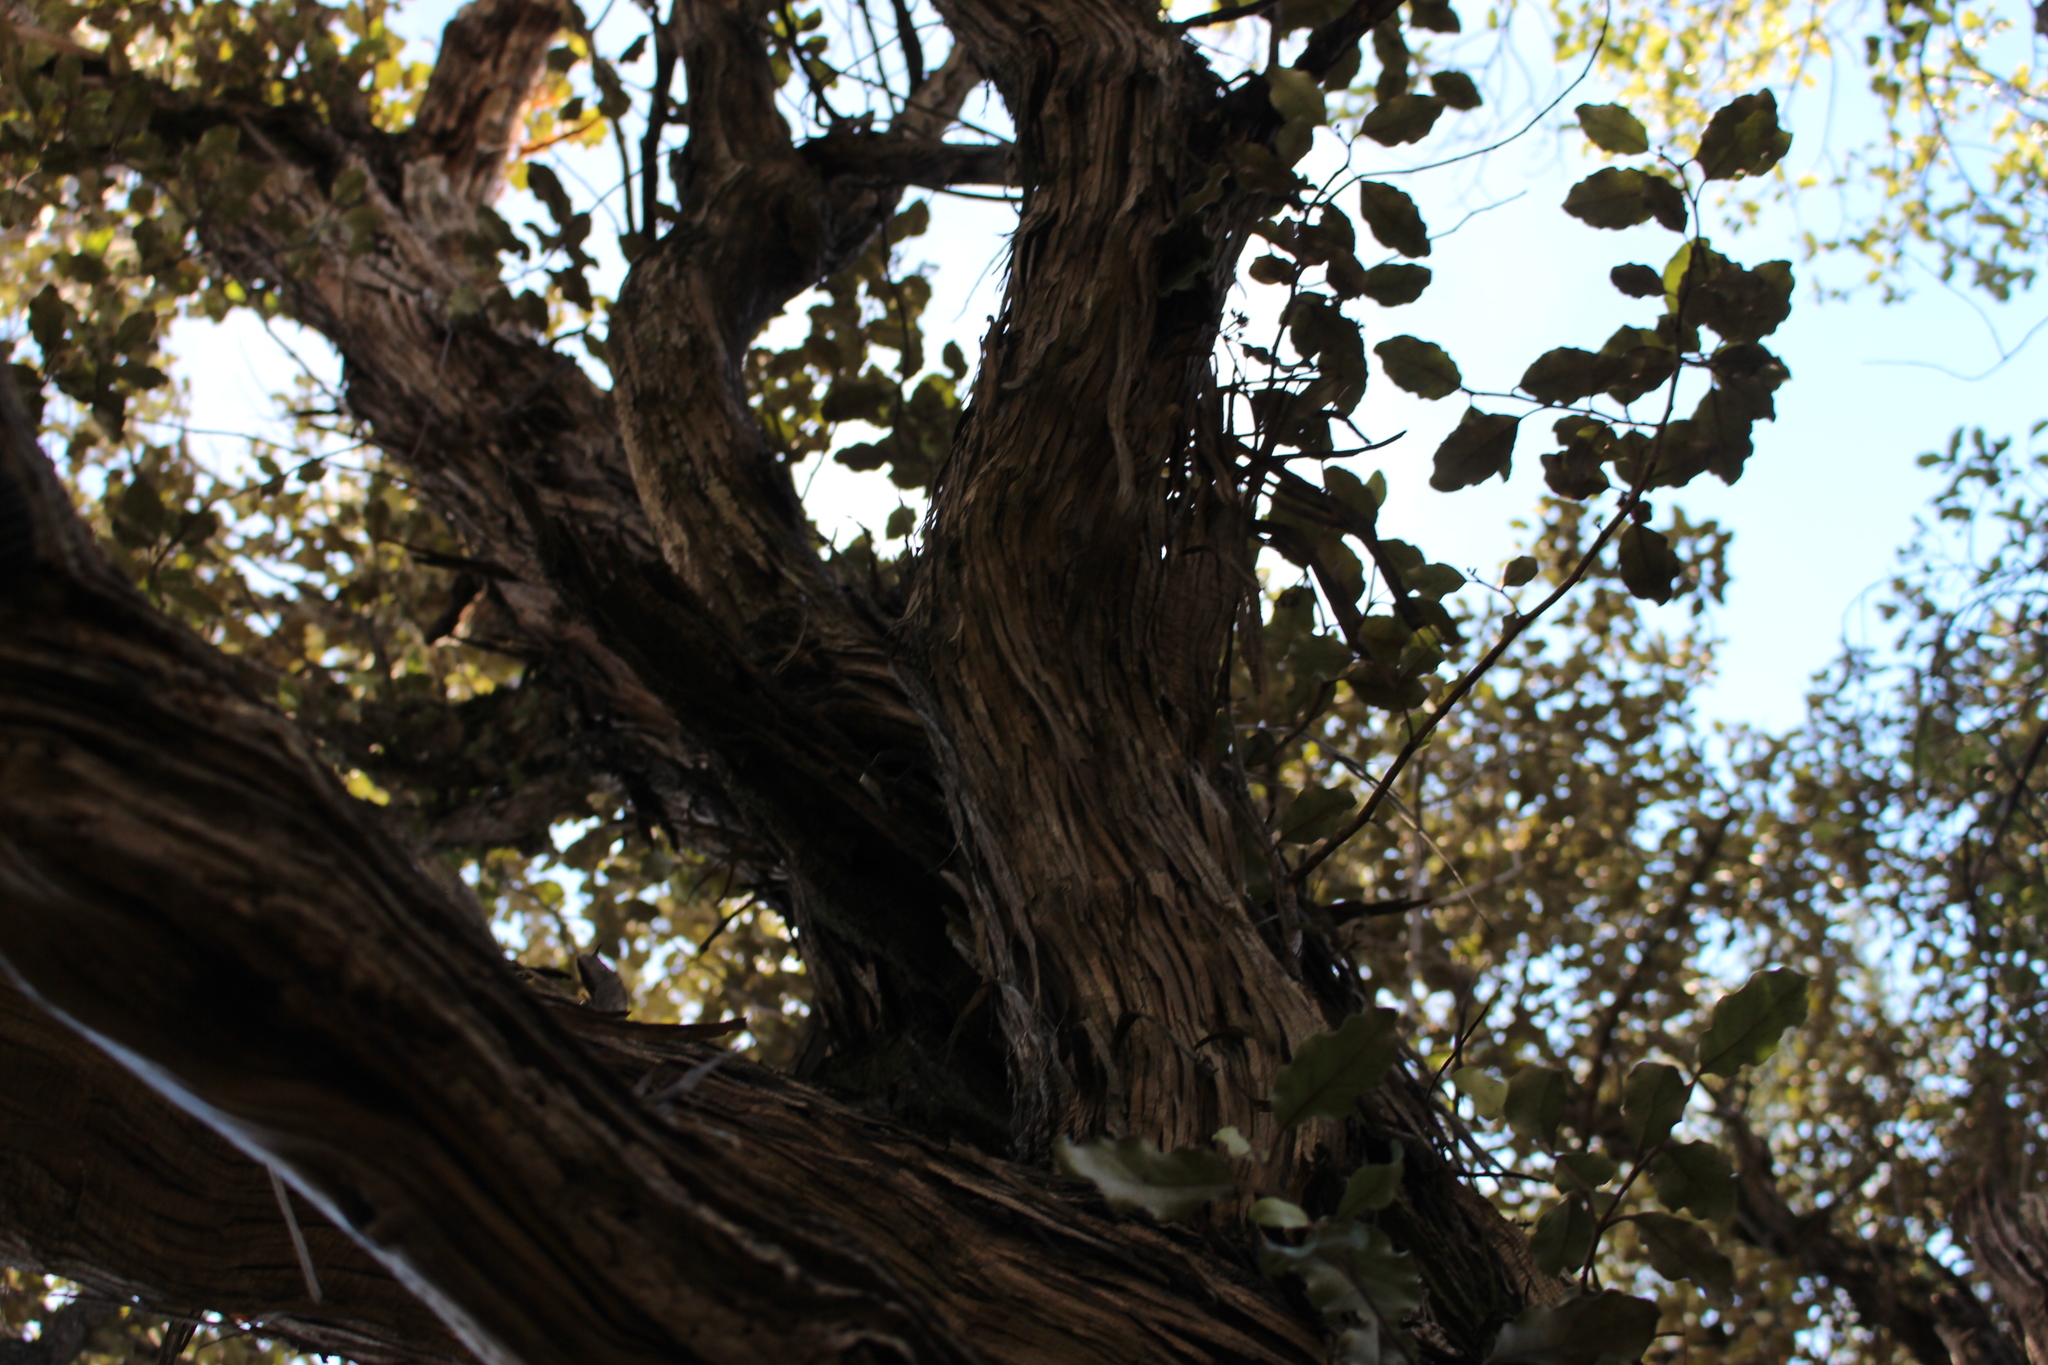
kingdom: Plantae
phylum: Tracheophyta
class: Magnoliopsida
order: Asterales
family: Asteraceae
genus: Olearia
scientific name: Olearia paniculata
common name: Akiraho
